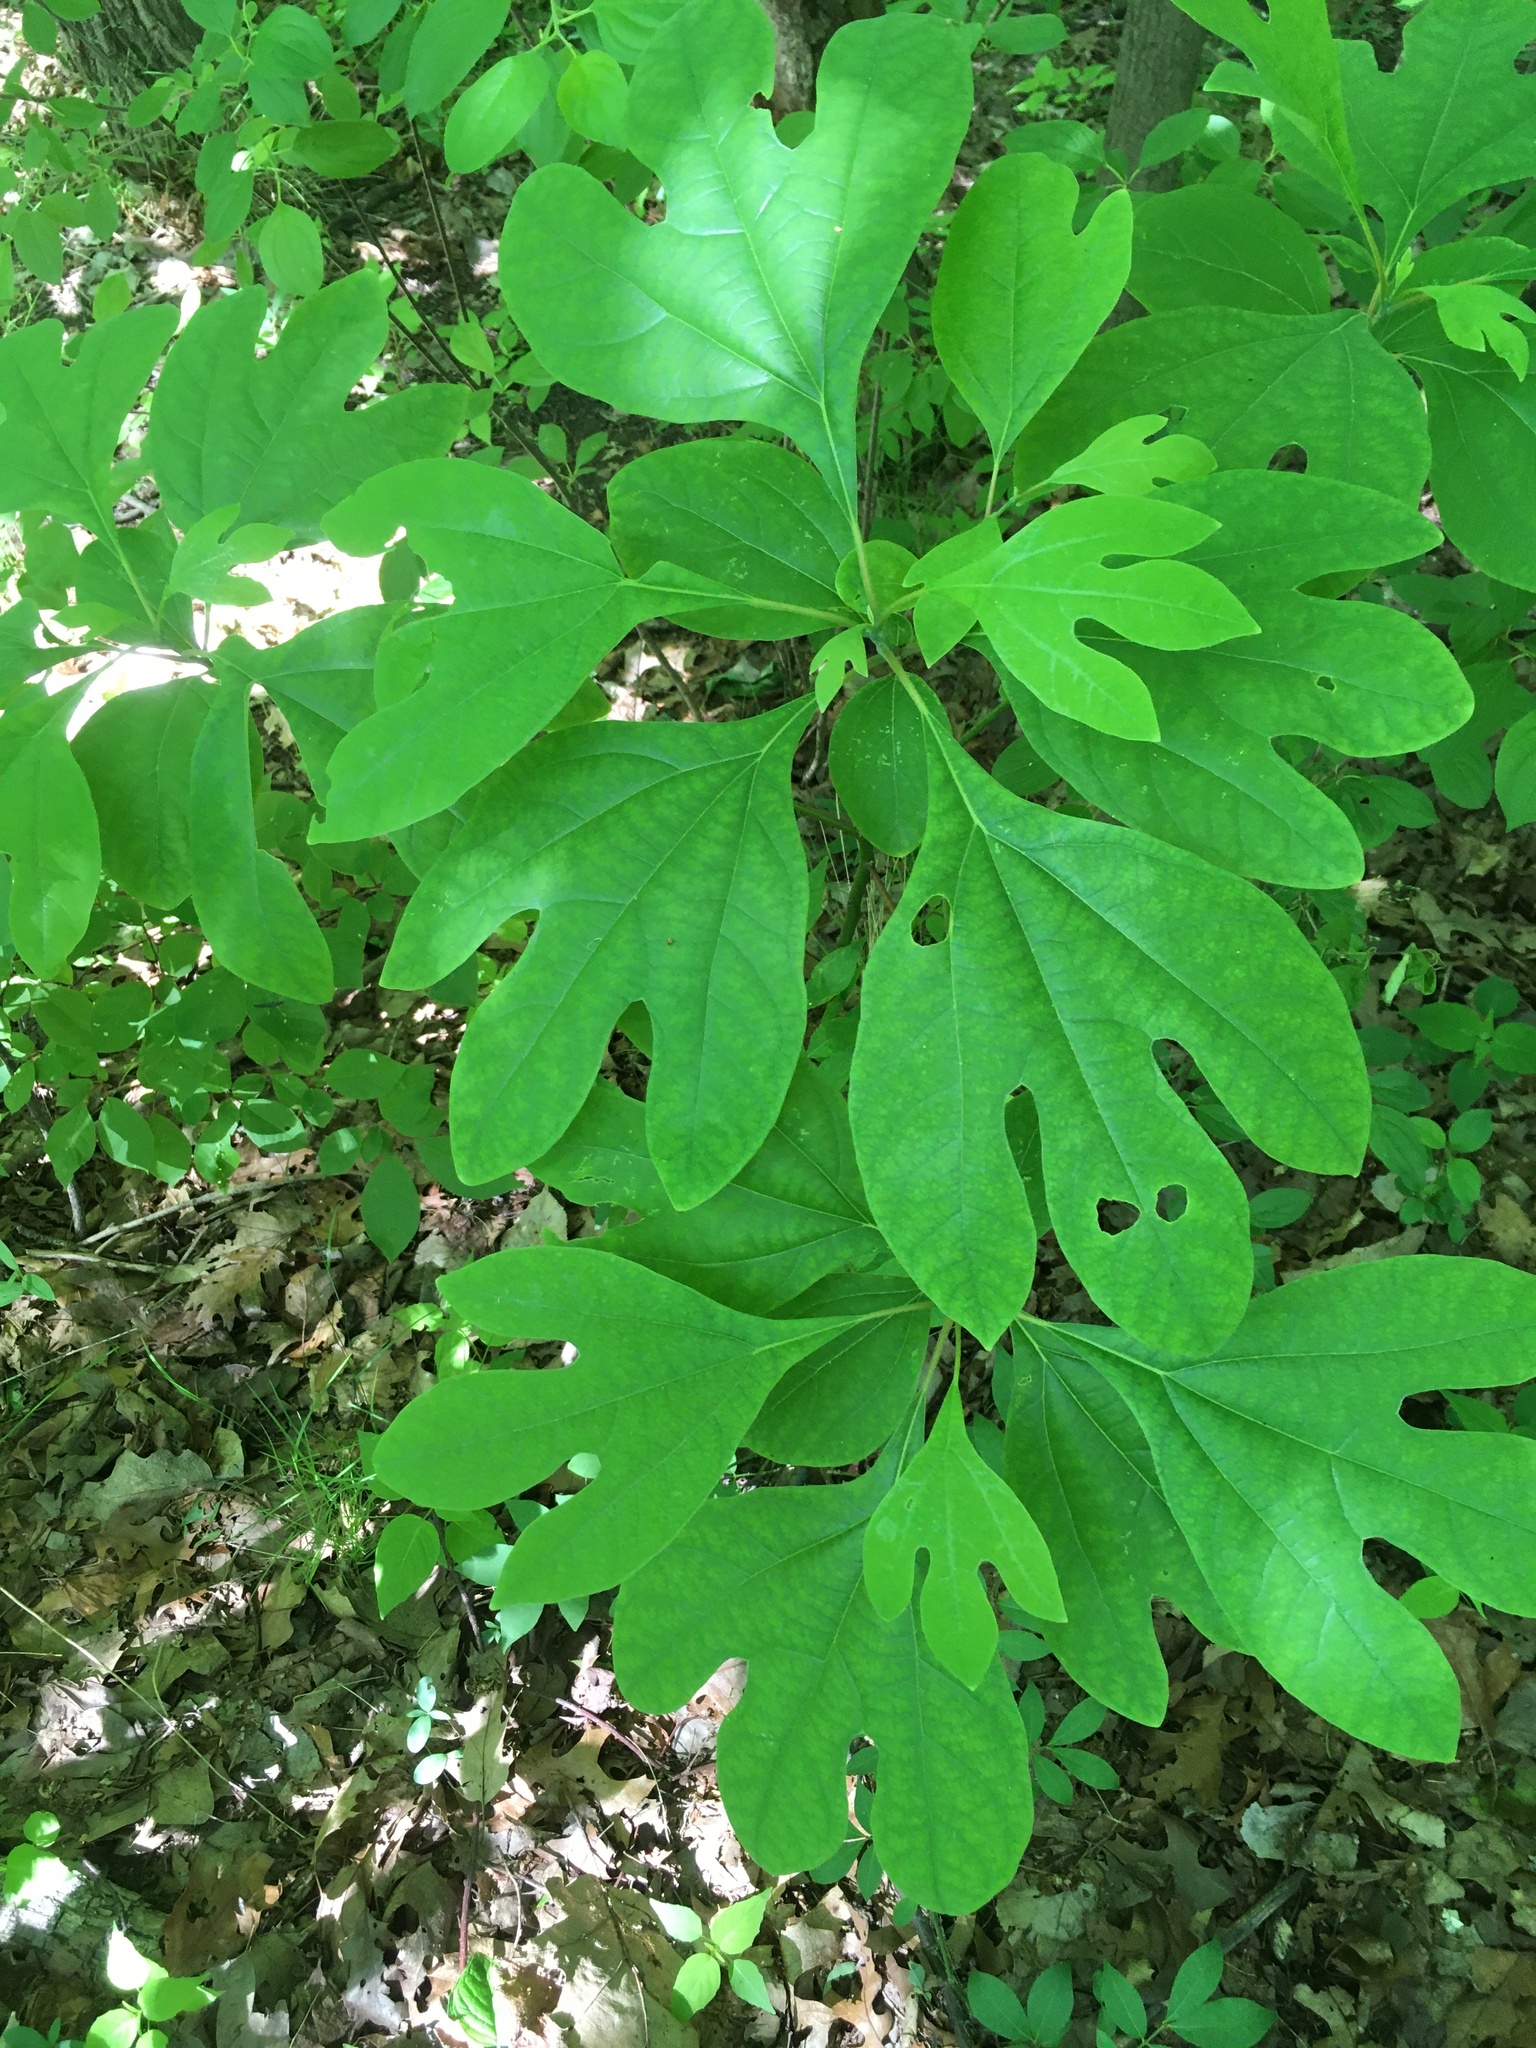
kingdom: Plantae
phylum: Tracheophyta
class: Magnoliopsida
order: Laurales
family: Lauraceae
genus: Sassafras
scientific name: Sassafras albidum
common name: Sassafras
